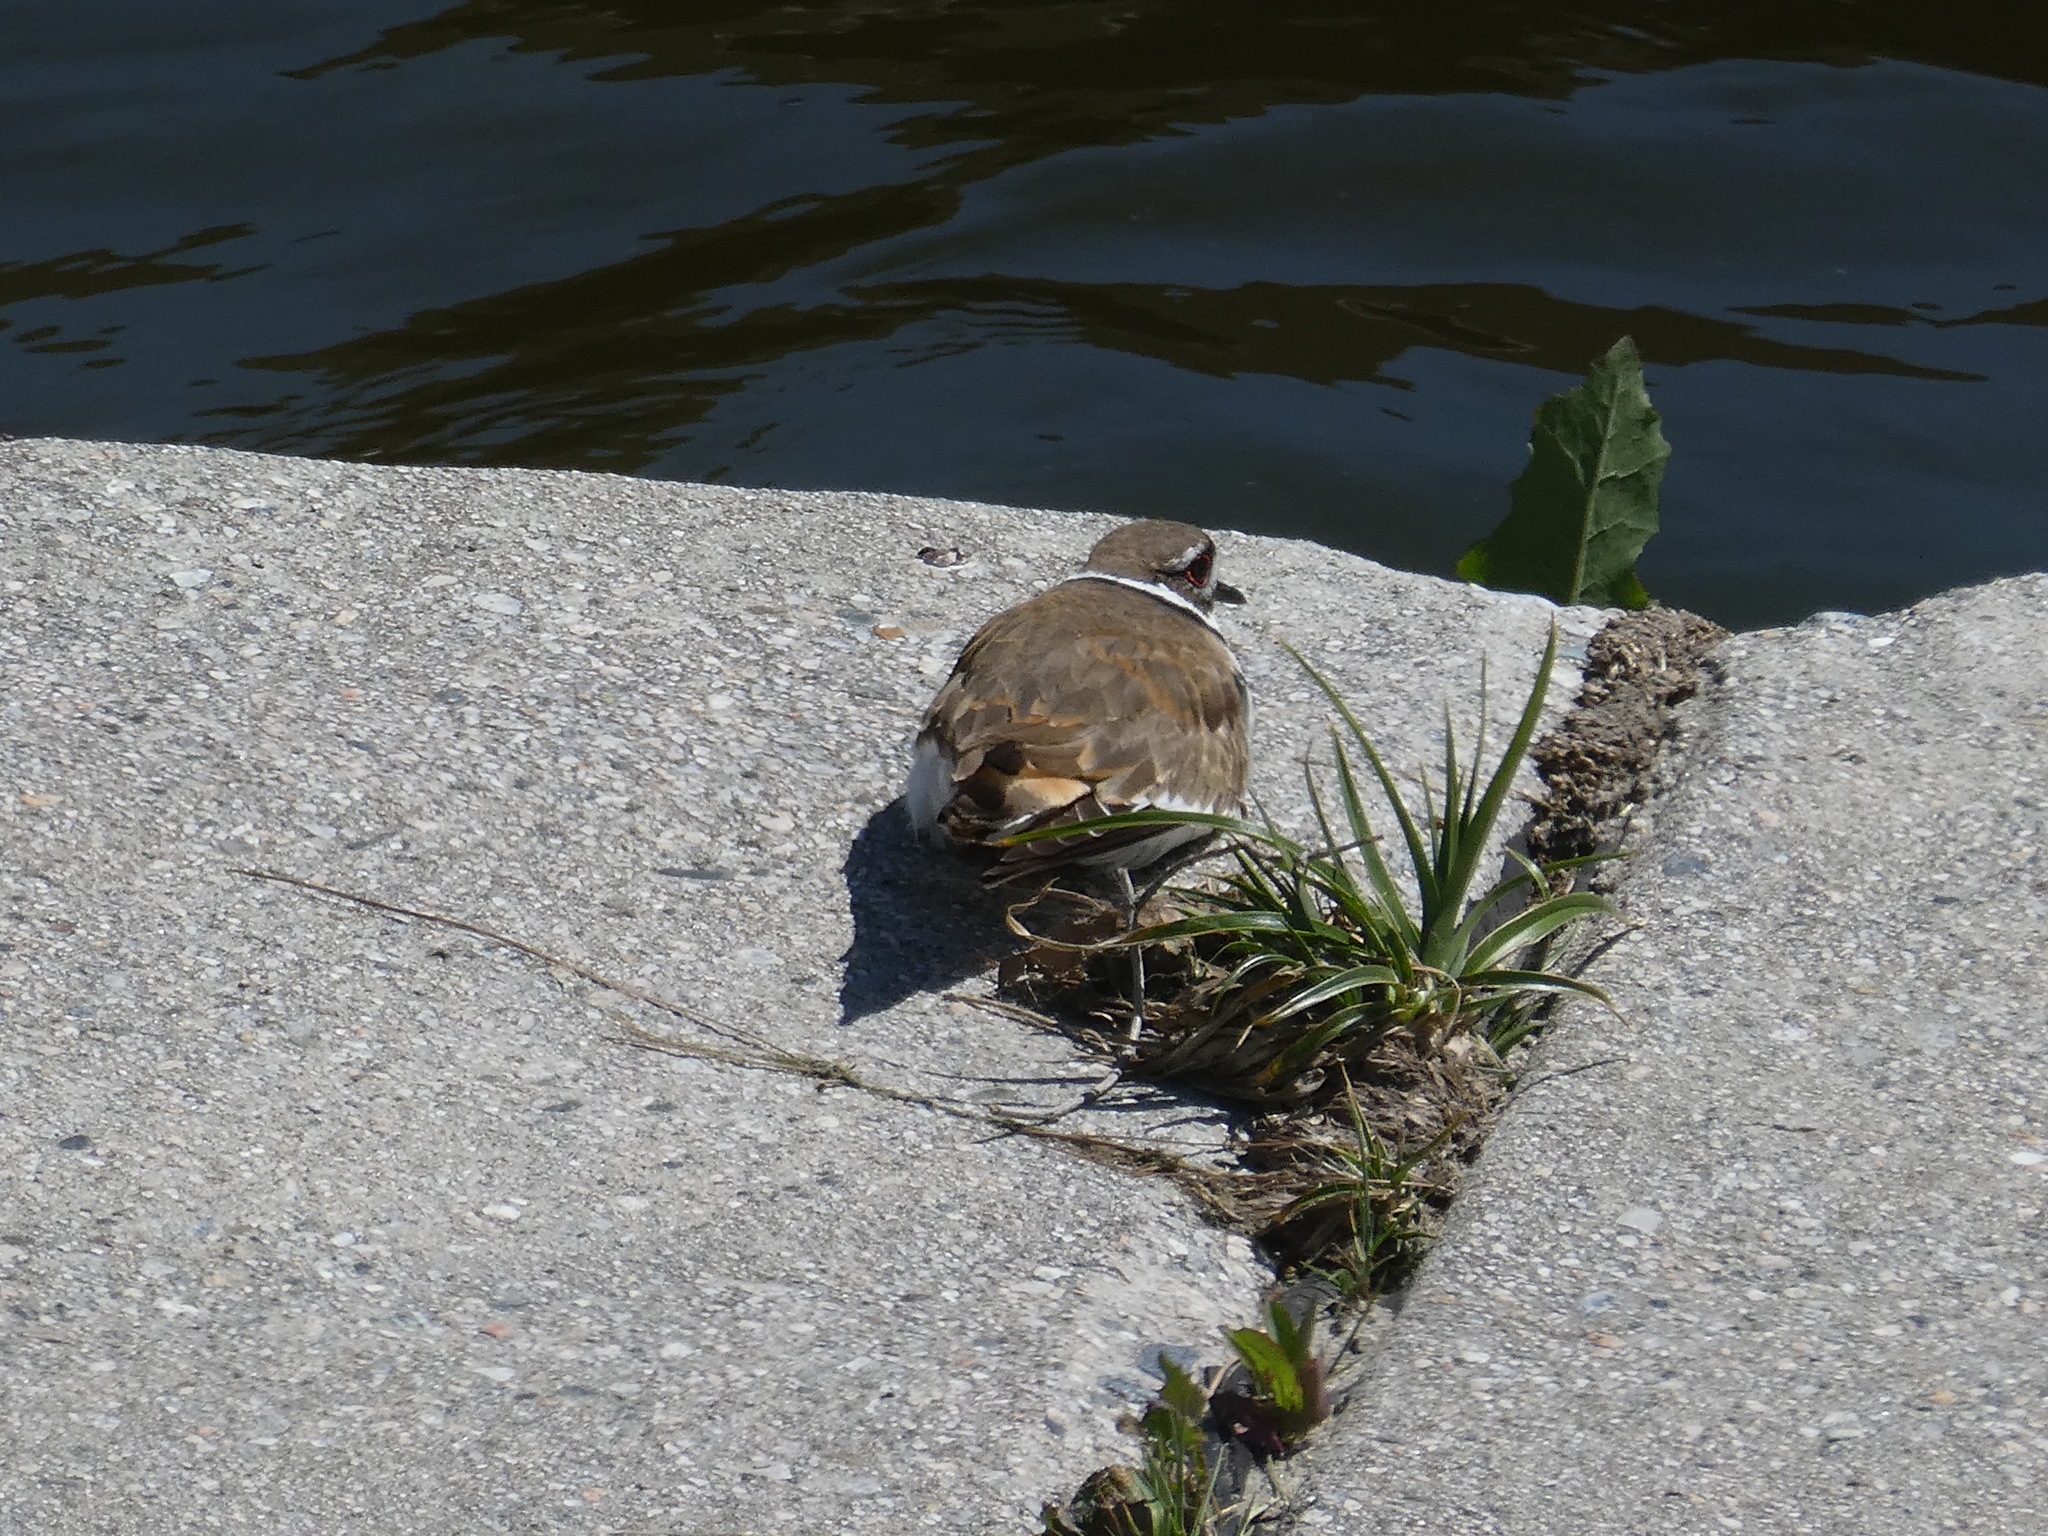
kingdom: Animalia
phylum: Chordata
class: Aves
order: Charadriiformes
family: Charadriidae
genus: Charadrius
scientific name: Charadrius vociferus
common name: Killdeer
